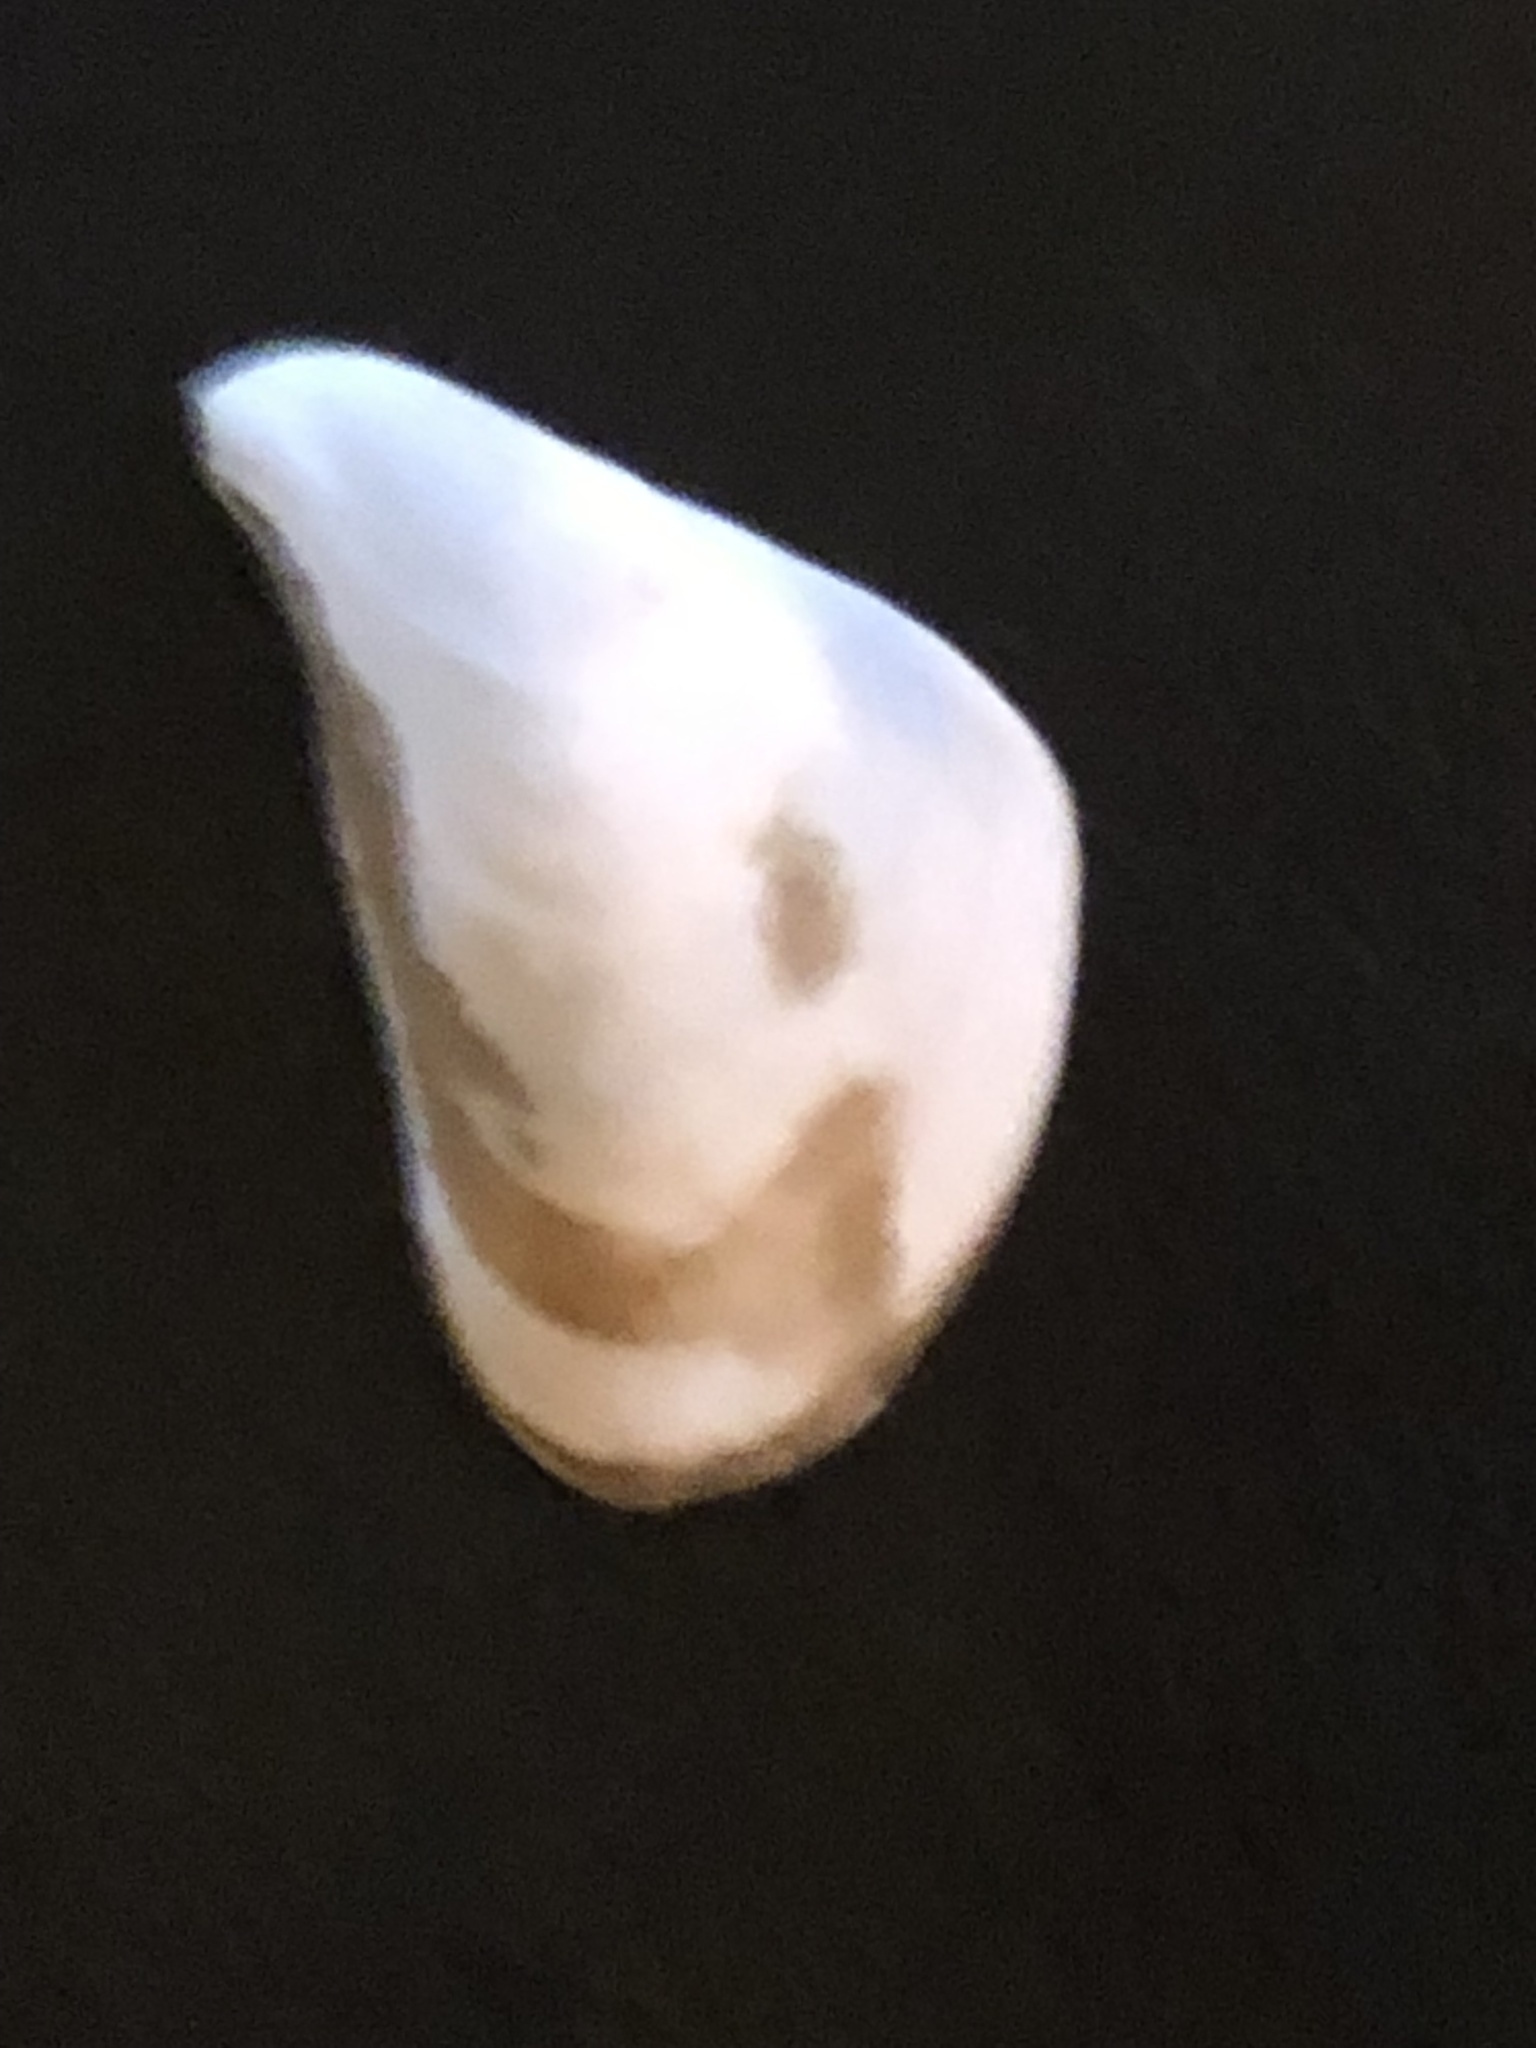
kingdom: Animalia
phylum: Mollusca
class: Bivalvia
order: Myida
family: Dreissenidae
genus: Dreissena
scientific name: Dreissena bugensis
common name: Quagga mussel
